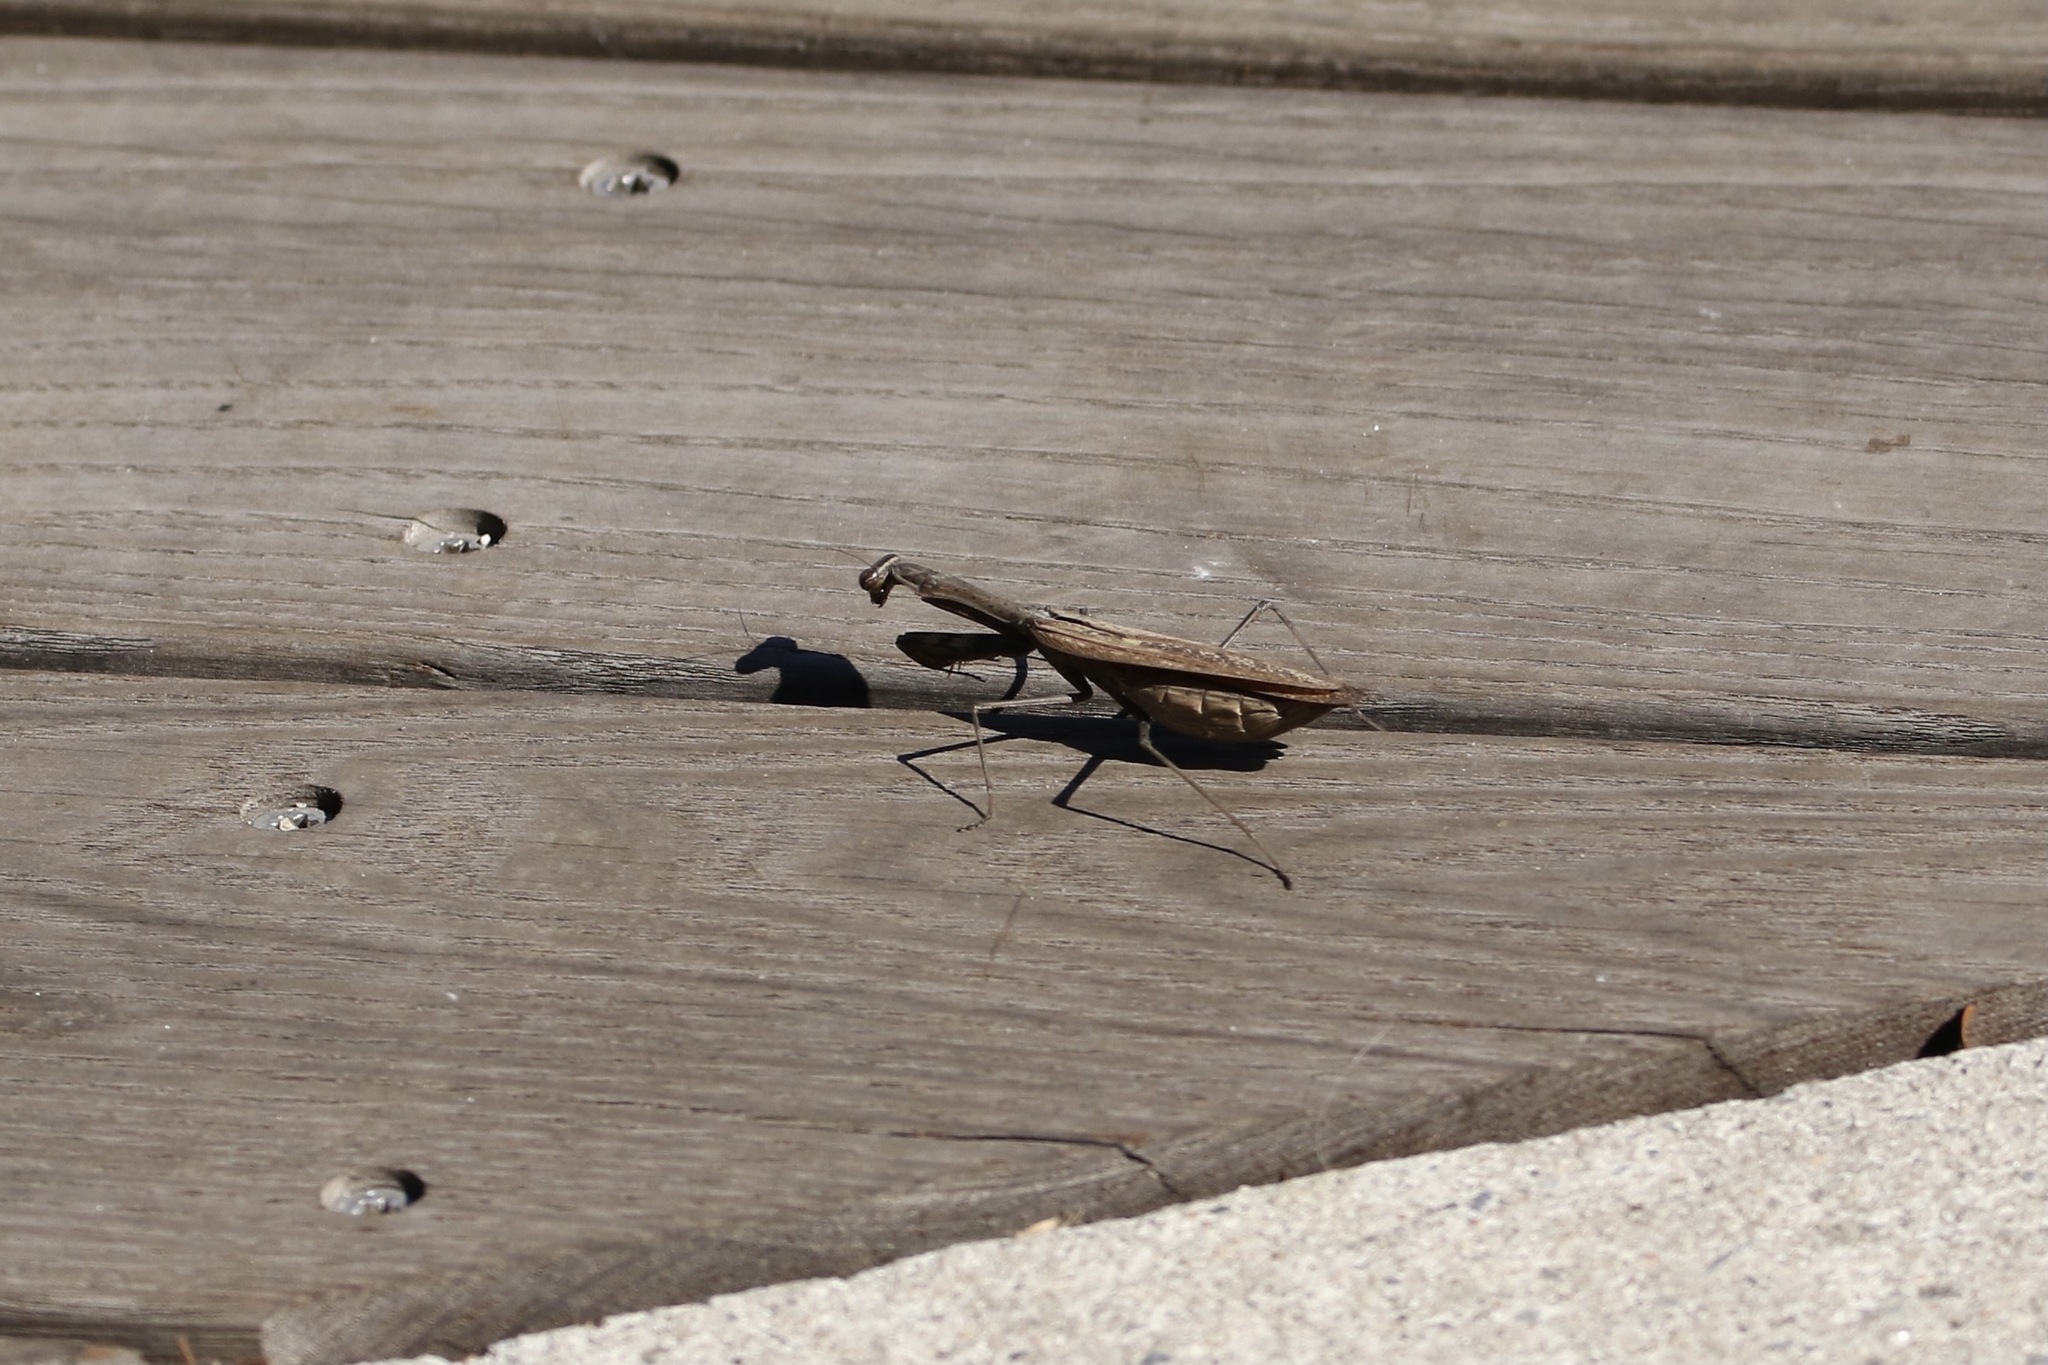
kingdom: Animalia
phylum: Arthropoda
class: Insecta
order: Mantodea
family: Mantidae
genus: Statilia
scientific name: Statilia maculata
